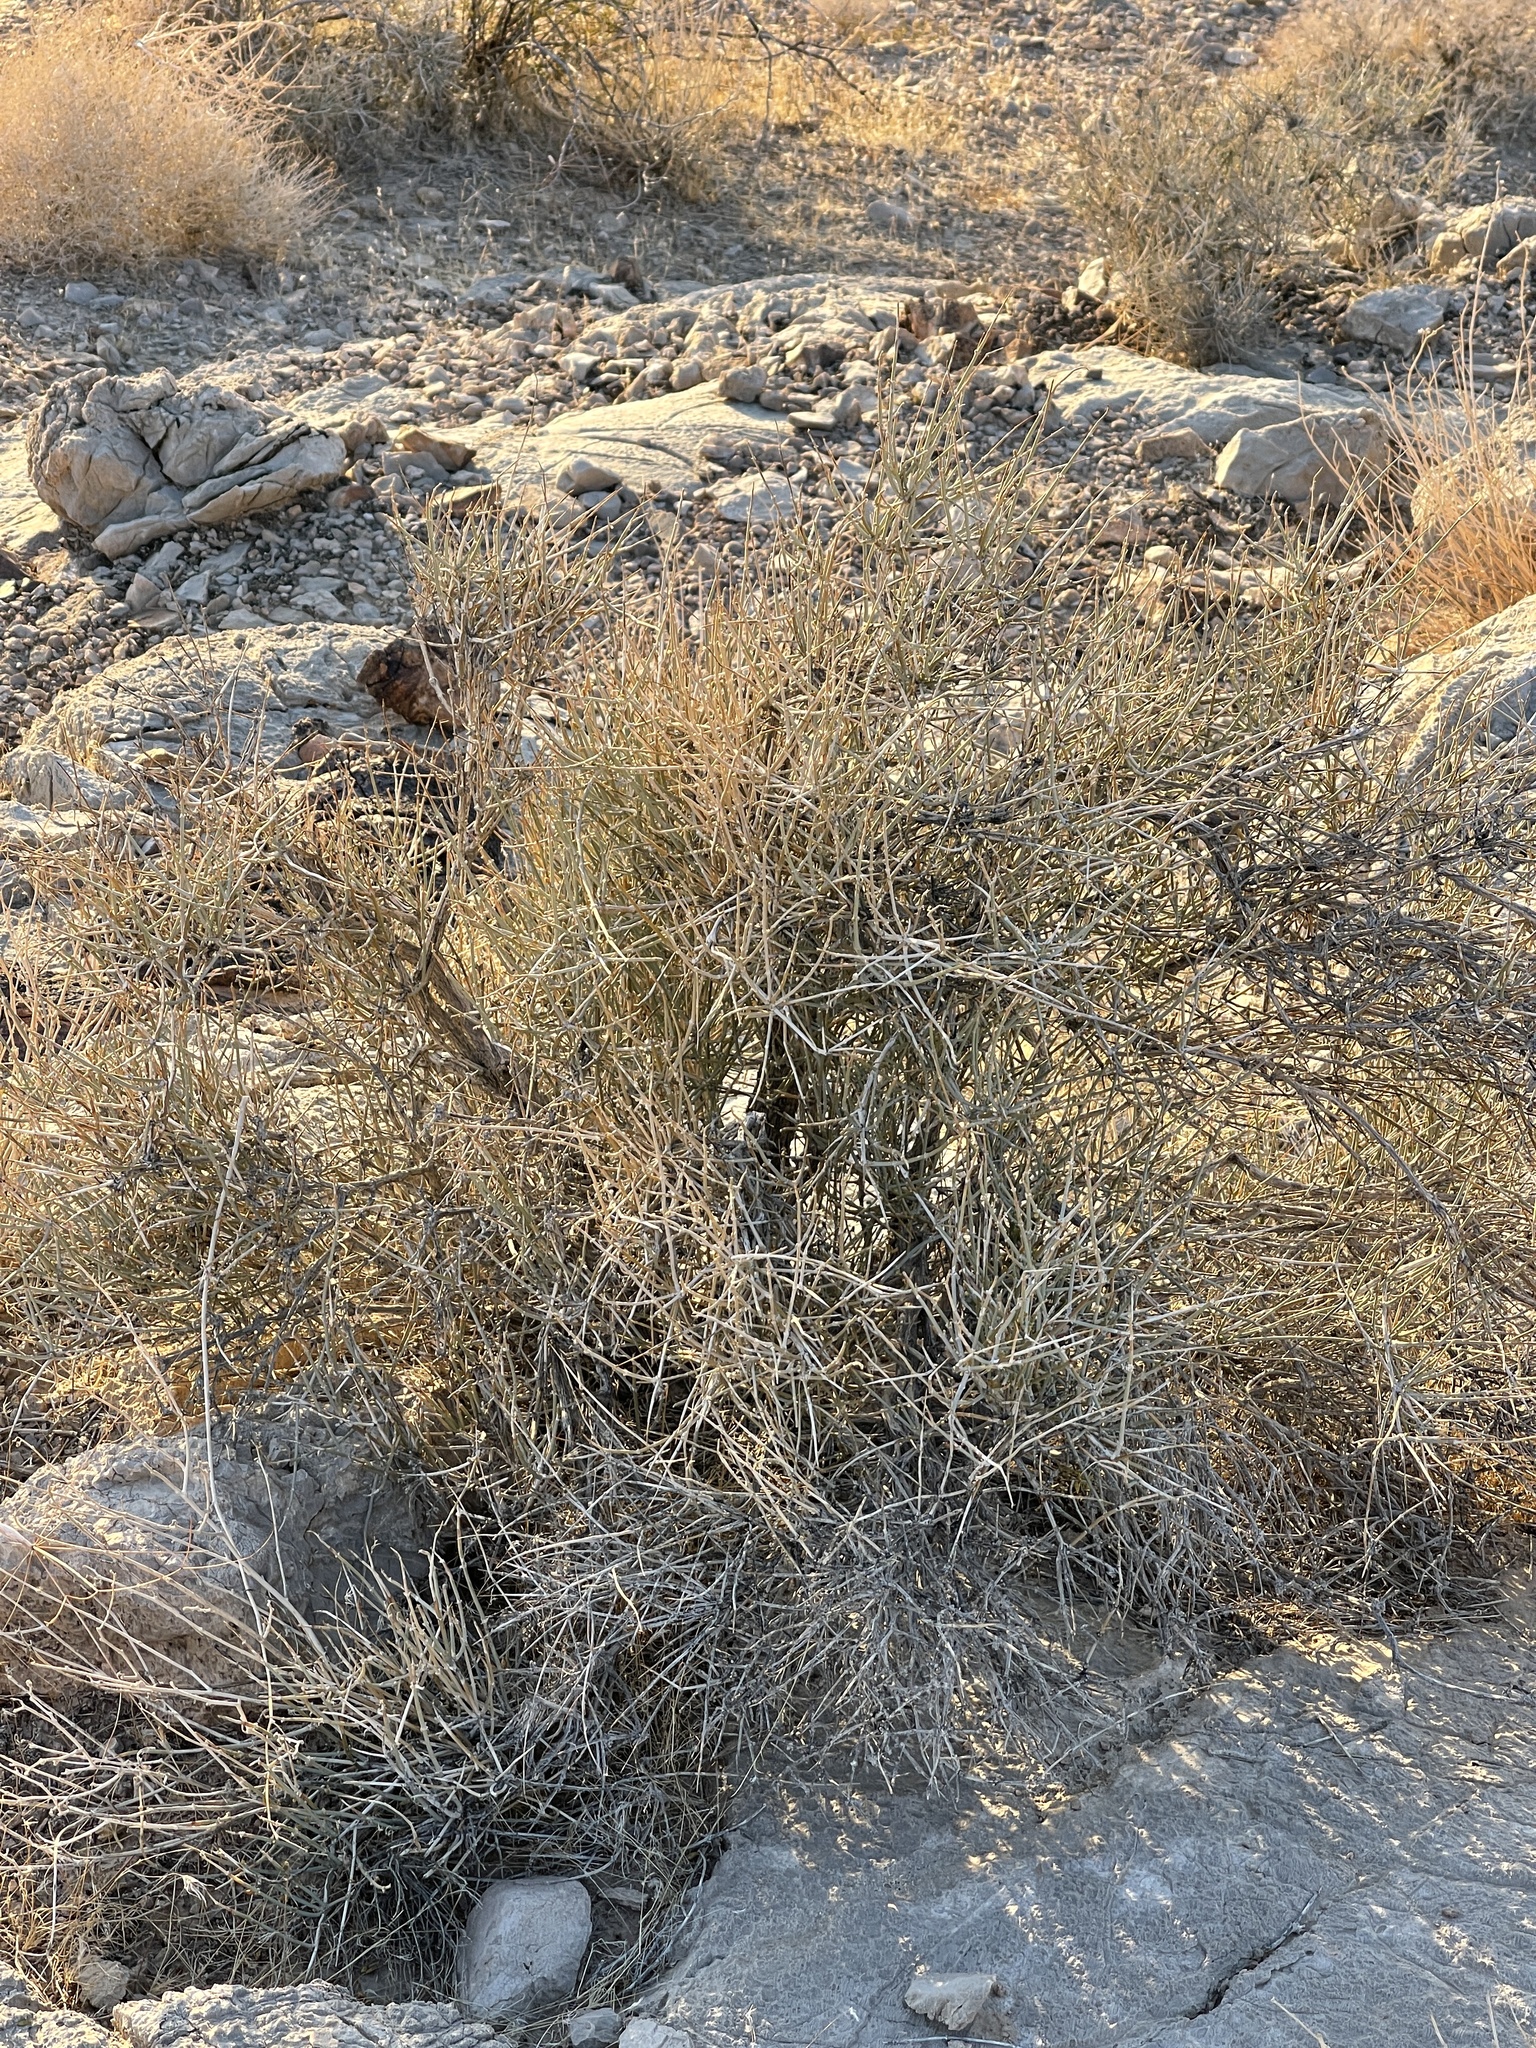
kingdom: Plantae
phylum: Tracheophyta
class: Gnetopsida
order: Ephedrales
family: Ephedraceae
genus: Ephedra
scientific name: Ephedra nevadensis
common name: Gray ephedra
